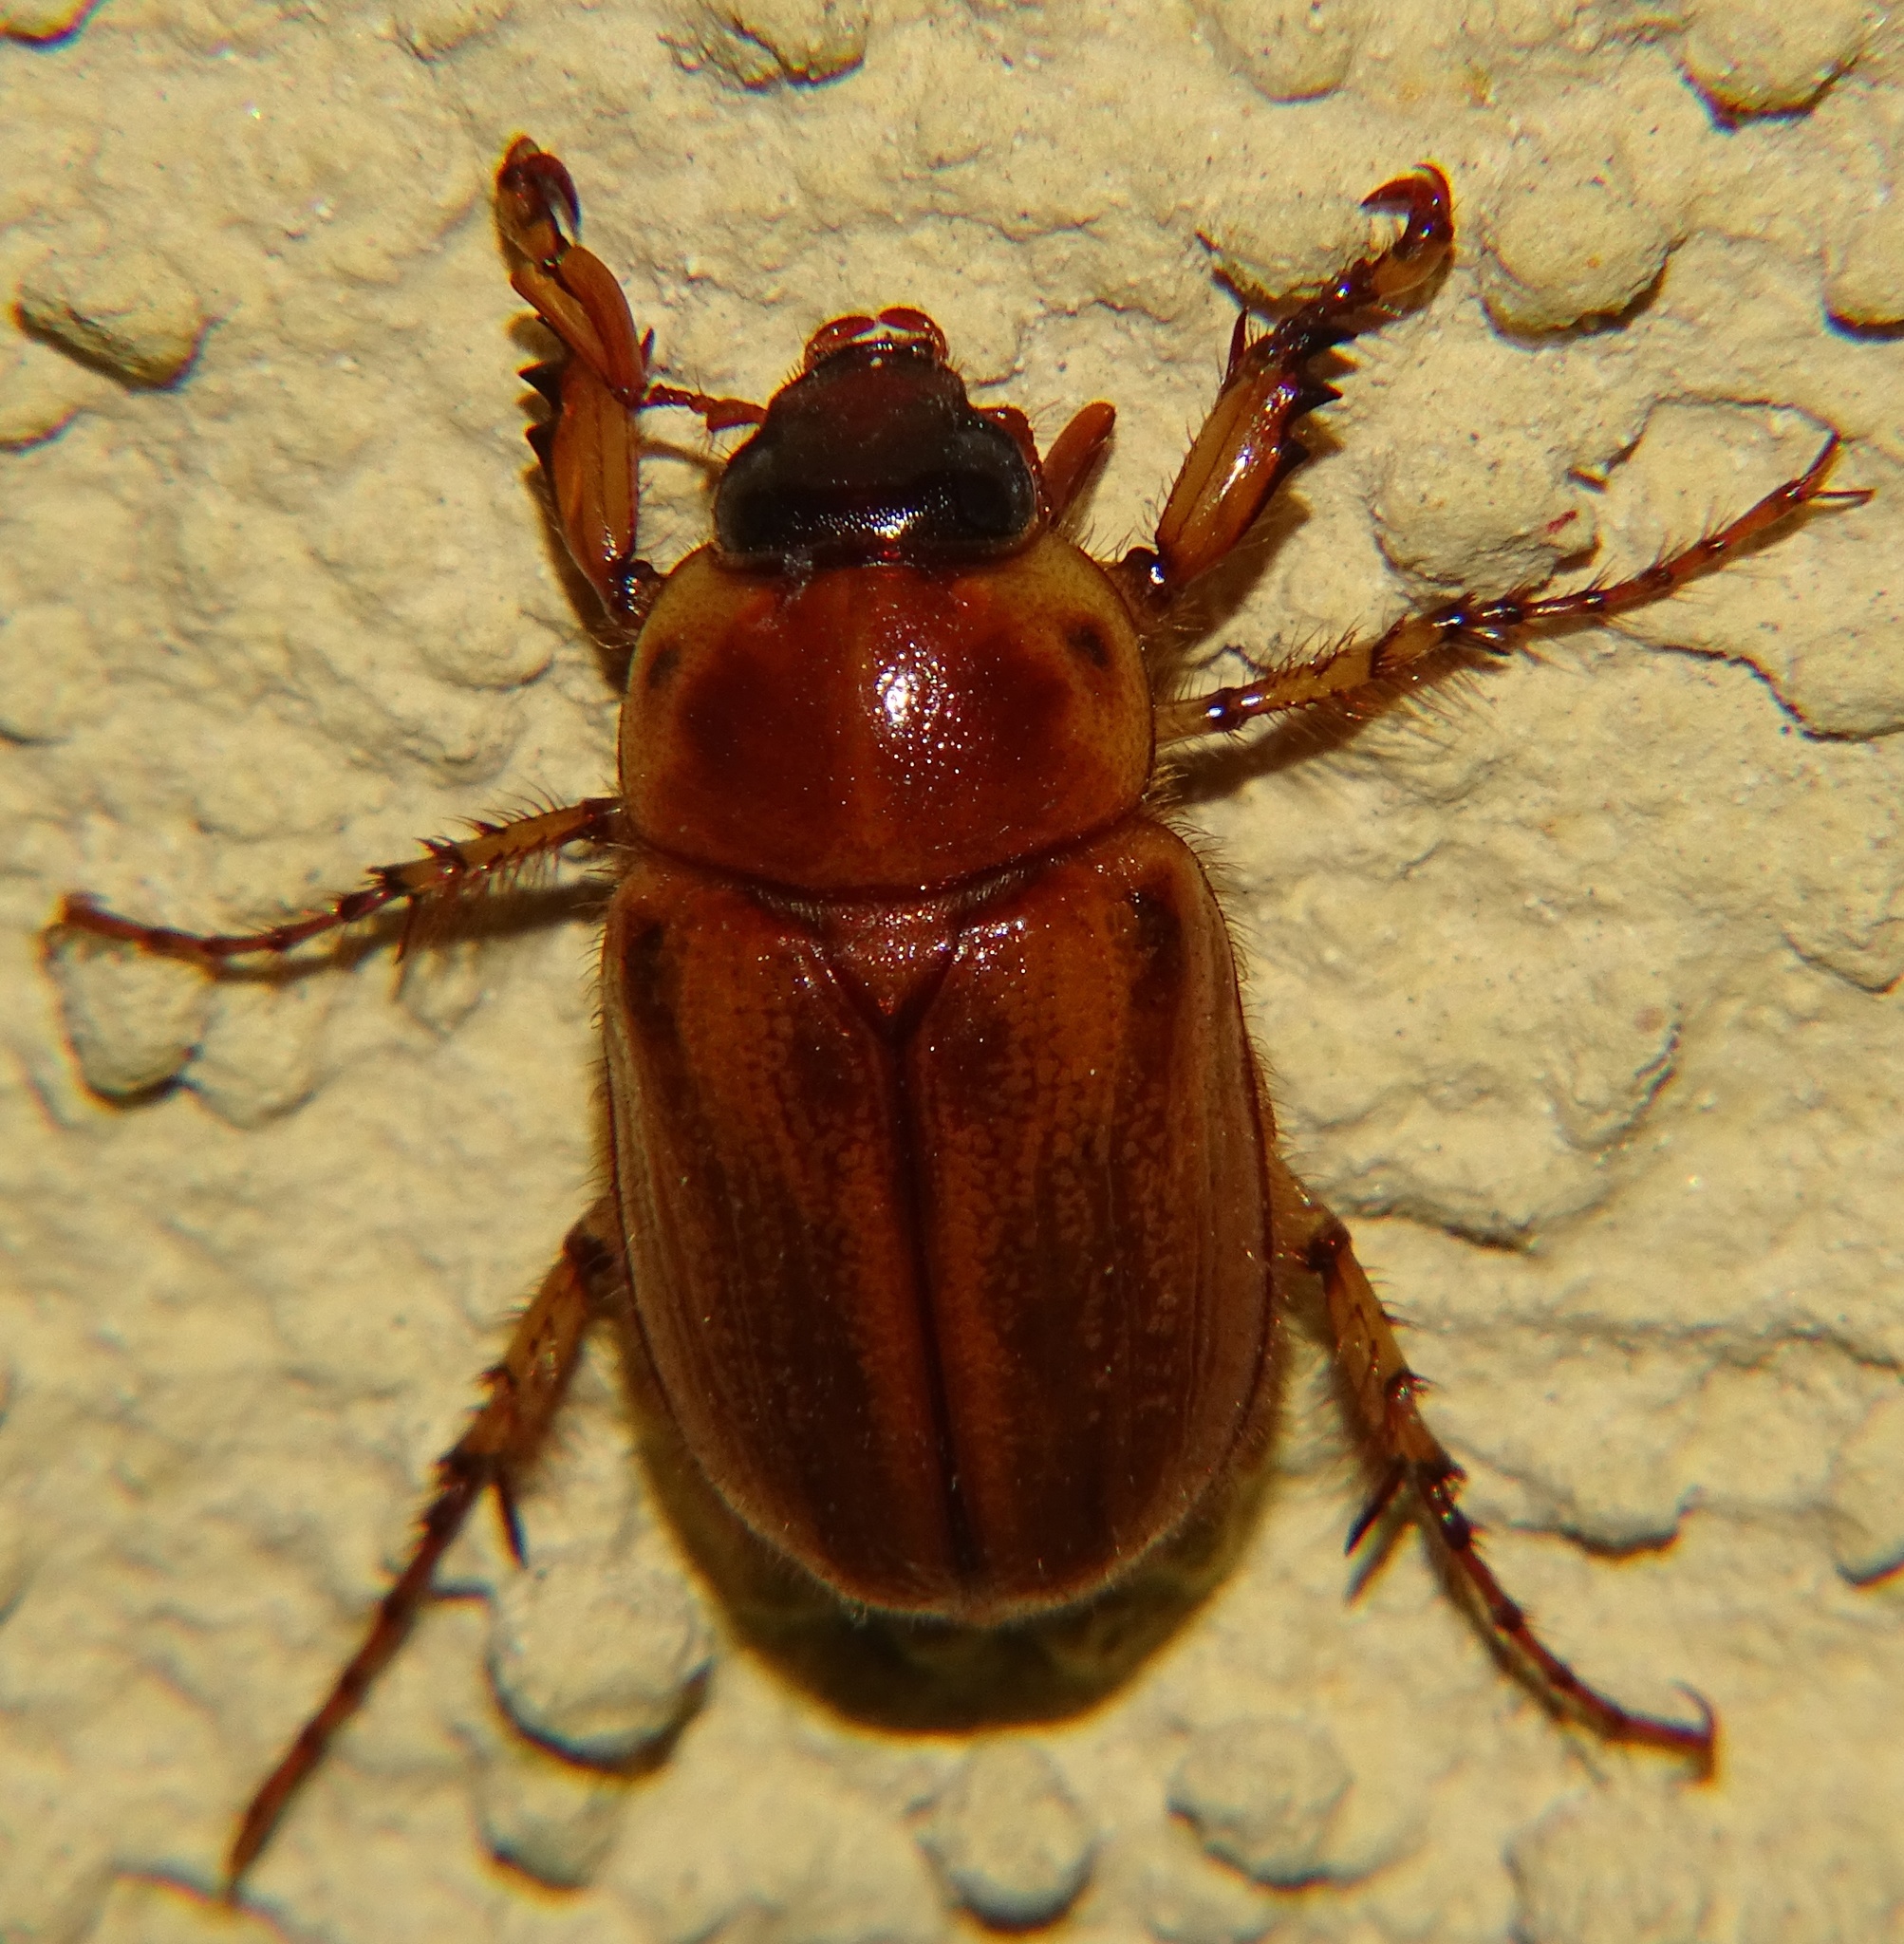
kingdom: Animalia
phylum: Arthropoda
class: Insecta
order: Coleoptera
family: Scarabaeidae
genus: Cyclocephala
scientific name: Cyclocephala pasadenae
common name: Pasadena masked chafer
